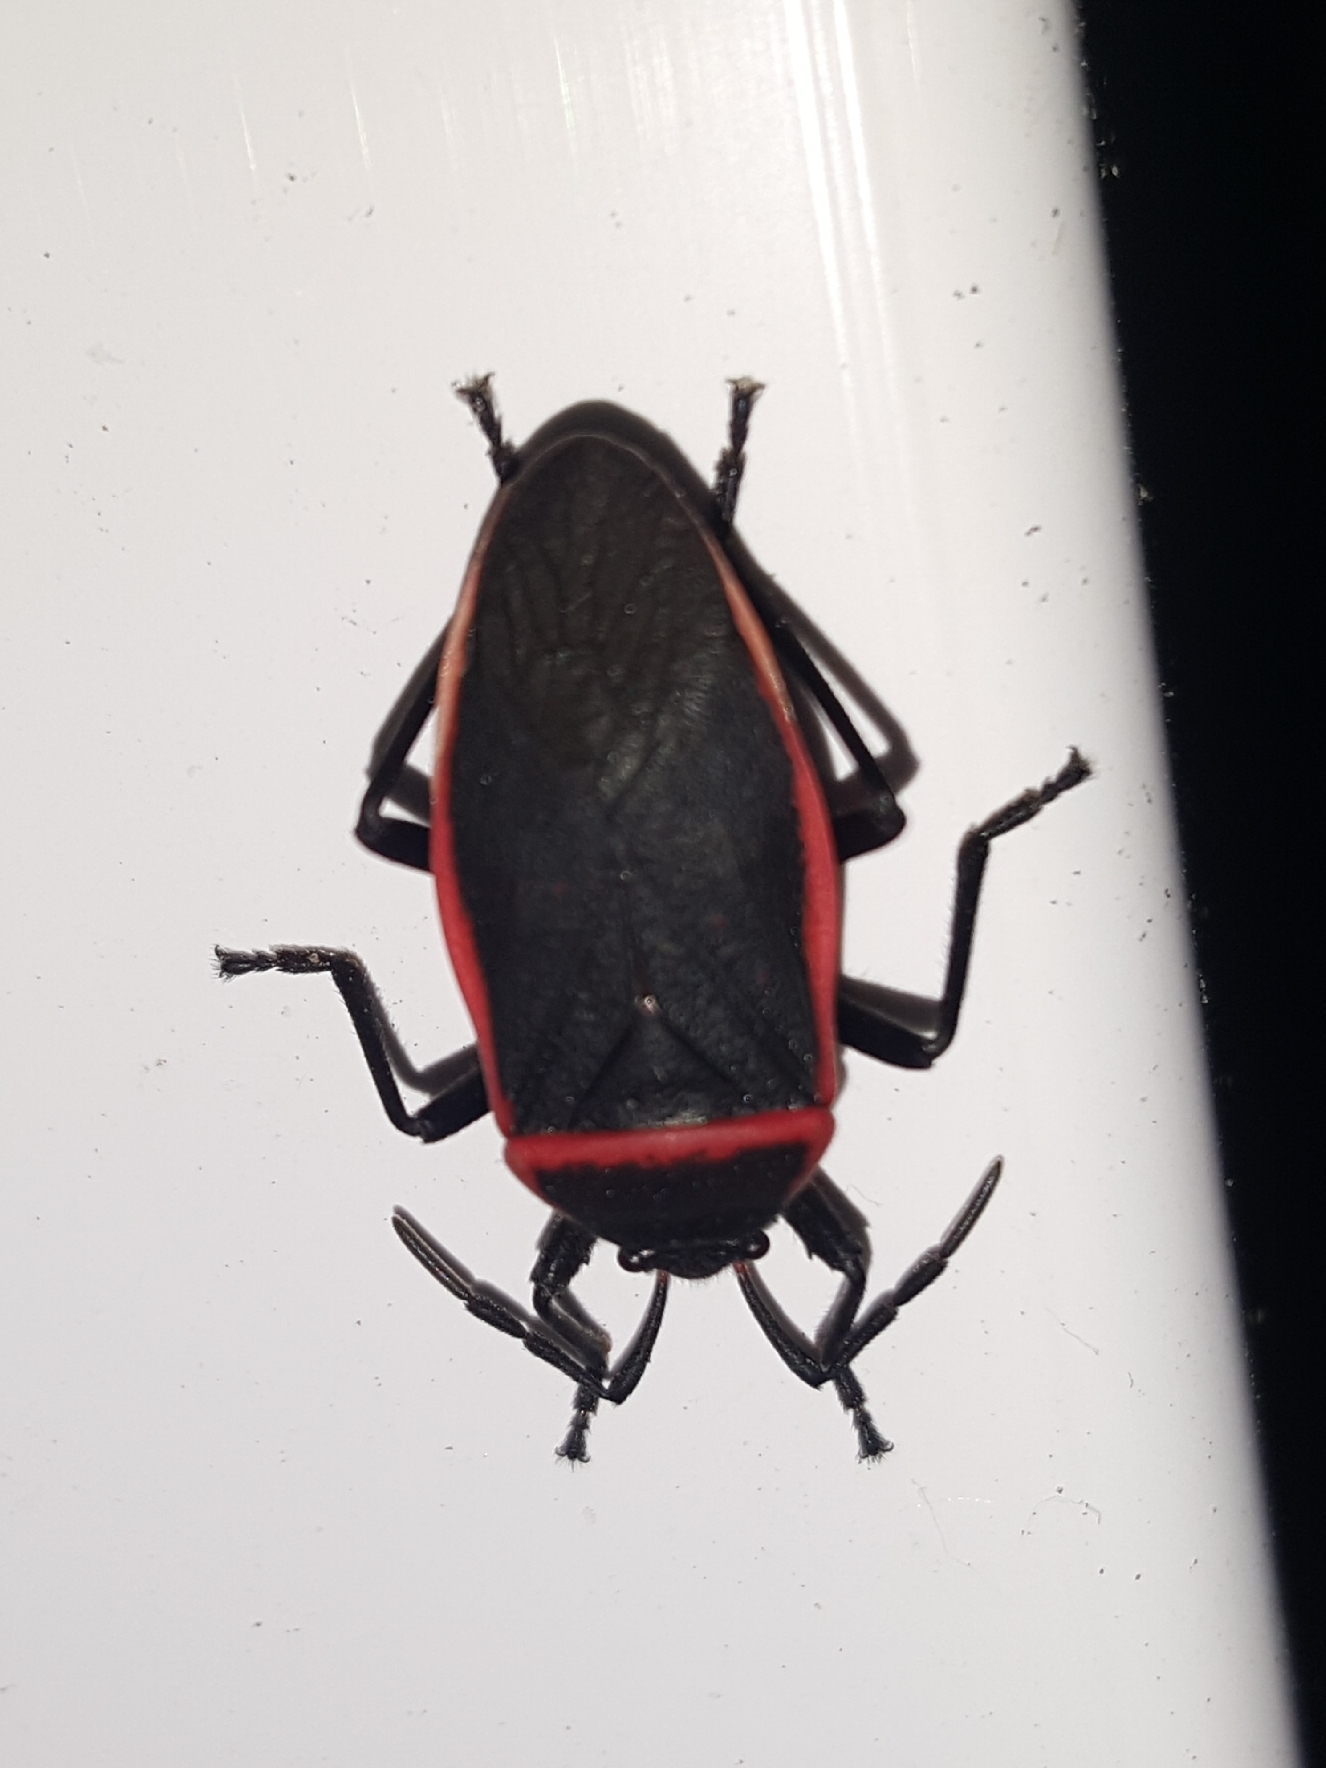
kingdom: Animalia
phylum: Arthropoda
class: Insecta
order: Hemiptera
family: Largidae
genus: Largus
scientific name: Largus
